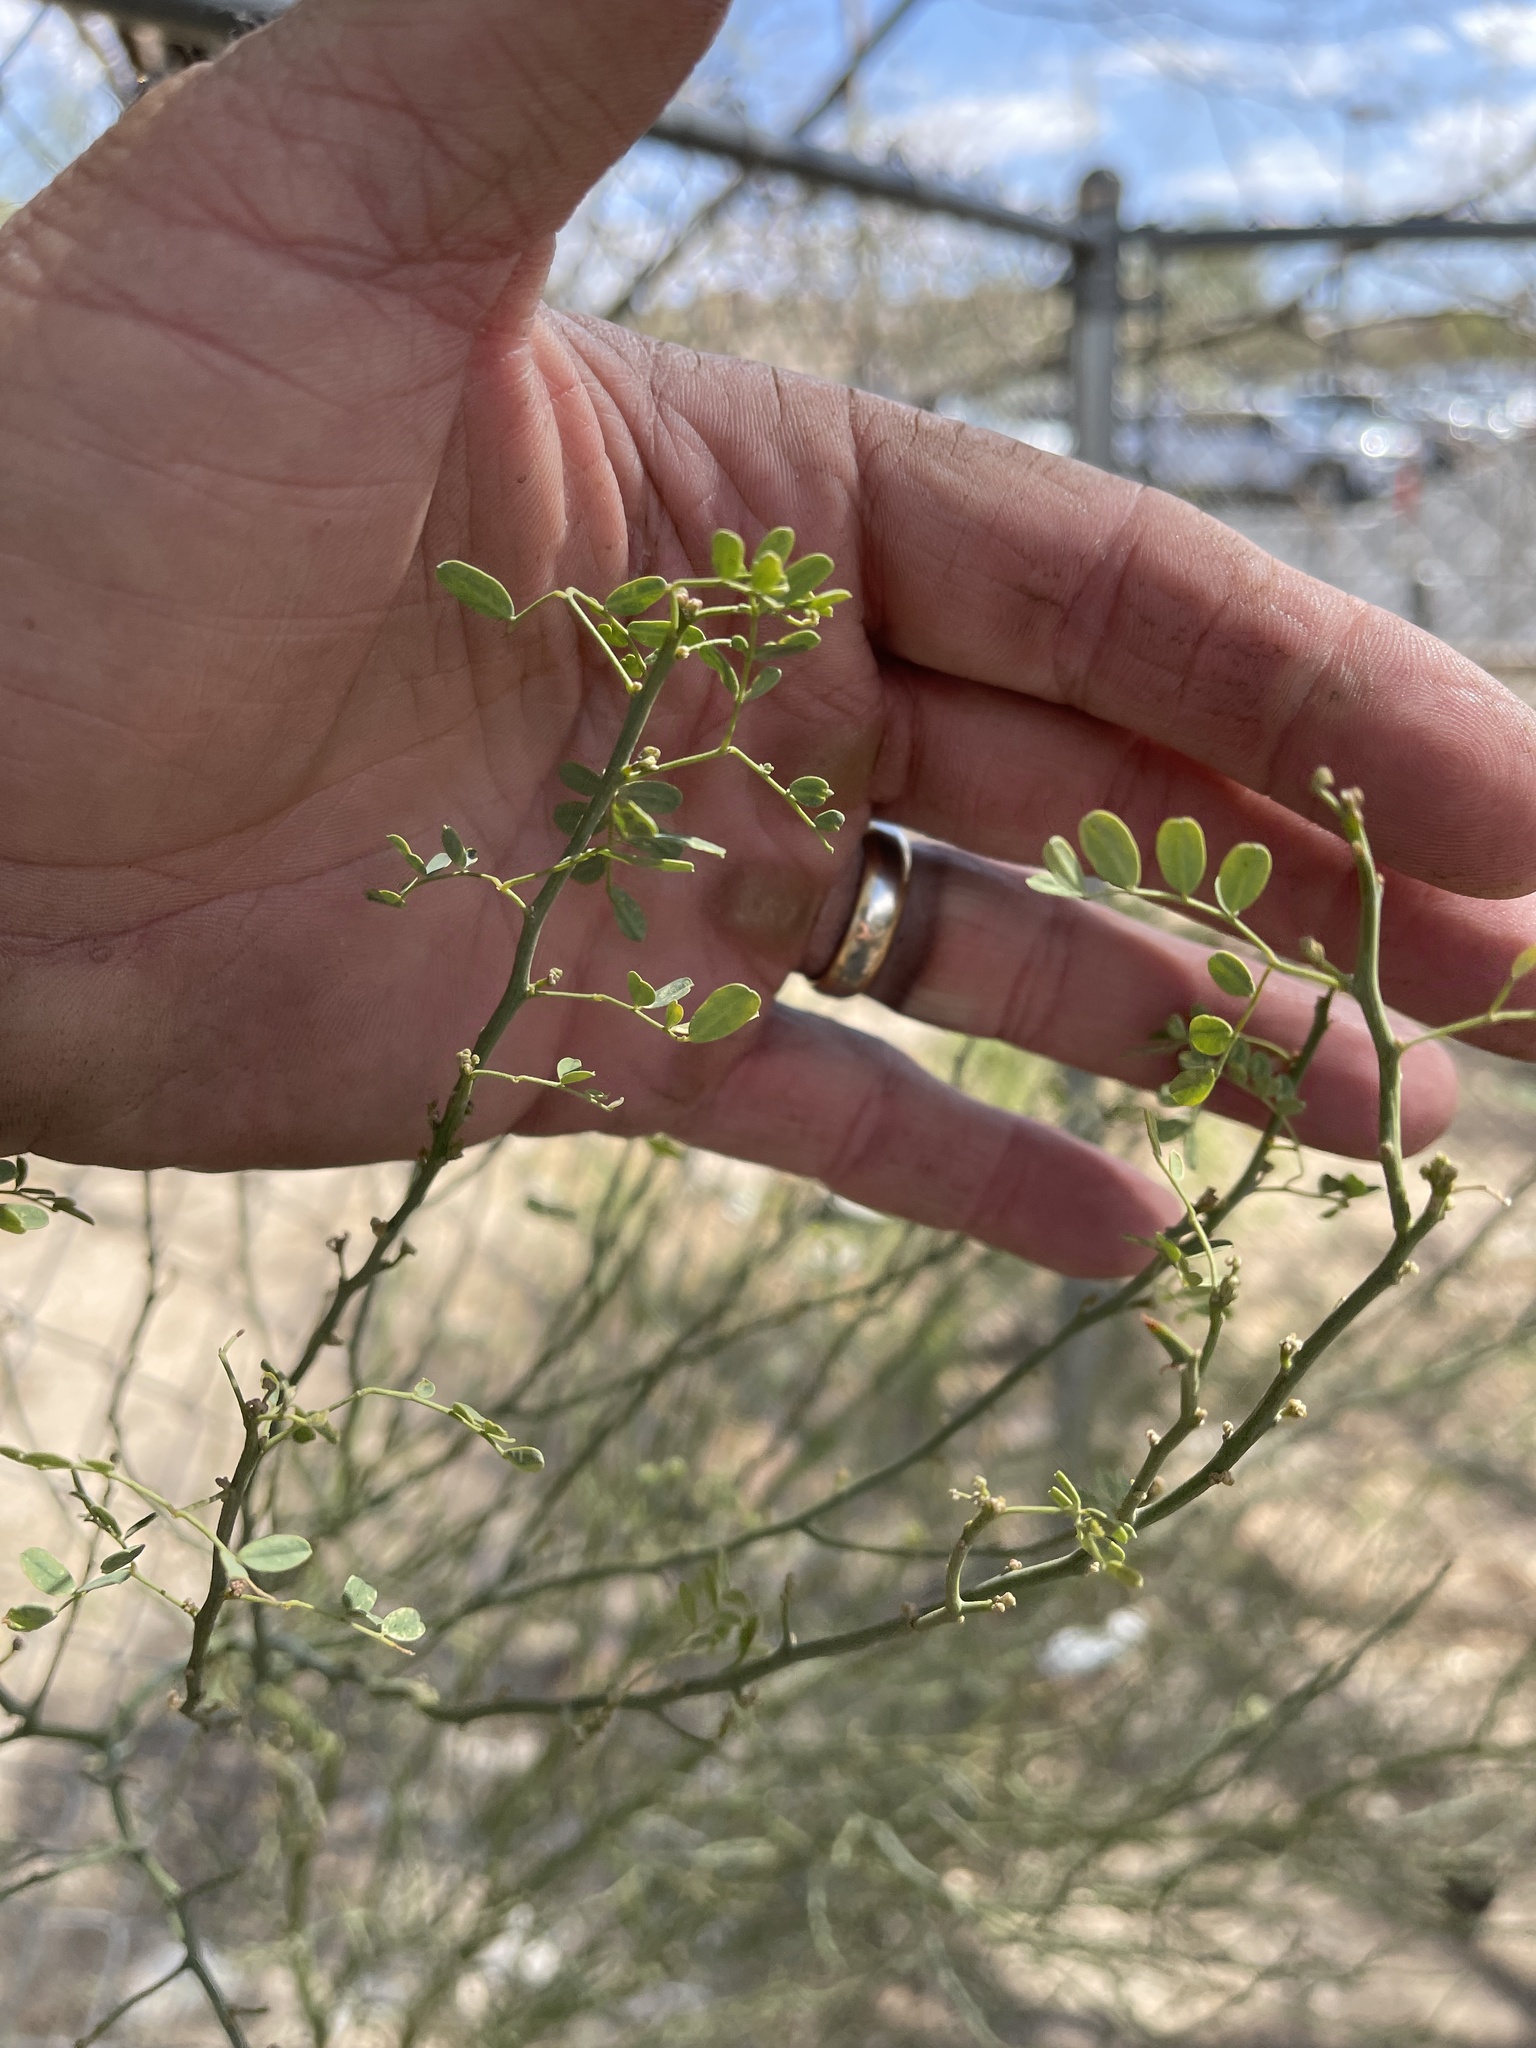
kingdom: Plantae
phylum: Tracheophyta
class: Magnoliopsida
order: Fabales
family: Fabaceae
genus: Parkinsonia
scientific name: Parkinsonia microphylla
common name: Yellow paloverde
